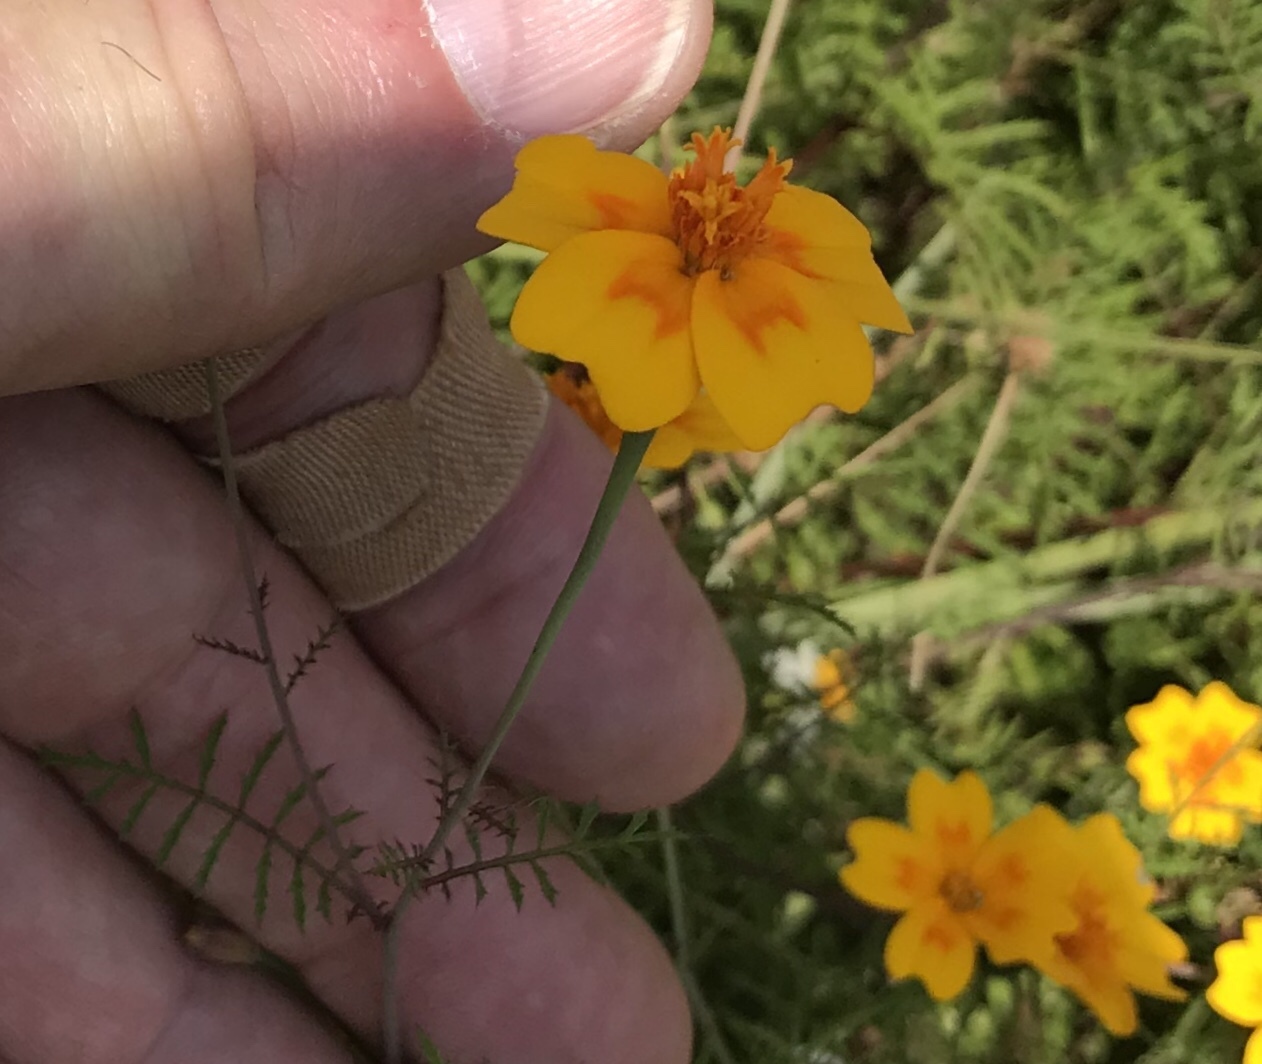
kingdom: Plantae
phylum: Tracheophyta
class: Magnoliopsida
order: Asterales
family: Asteraceae
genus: Tagetes
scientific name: Tagetes lunulata
